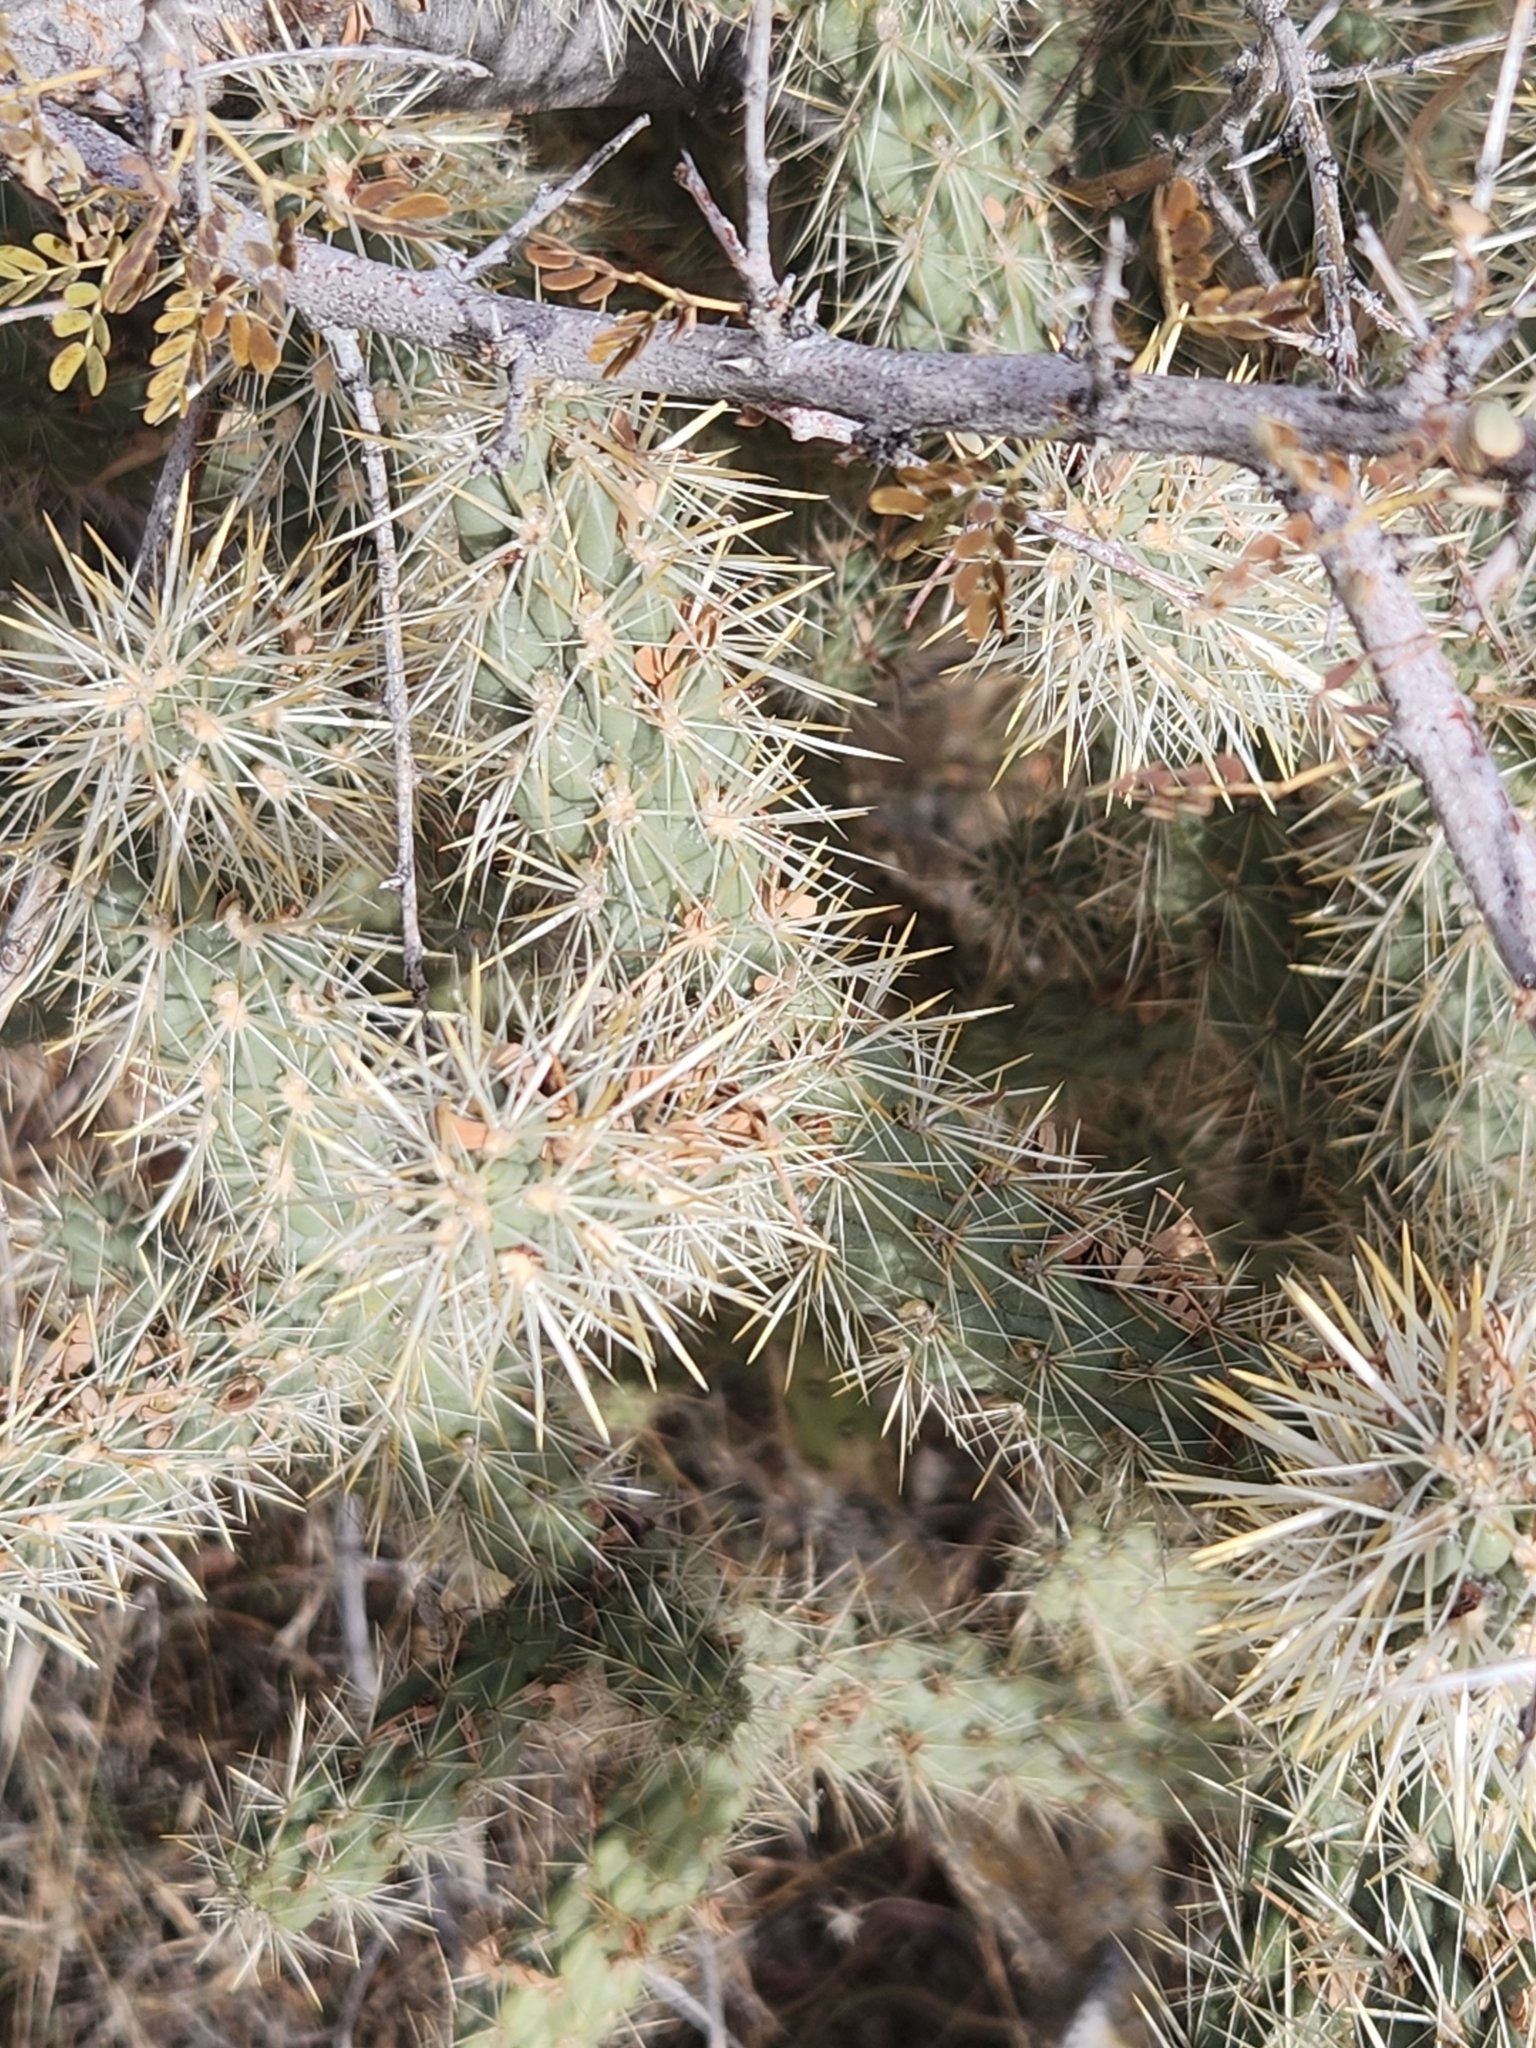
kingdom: Plantae
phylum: Tracheophyta
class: Magnoliopsida
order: Caryophyllales
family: Cactaceae
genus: Cylindropuntia
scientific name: Cylindropuntia echinocarpa
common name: Ground cholla
